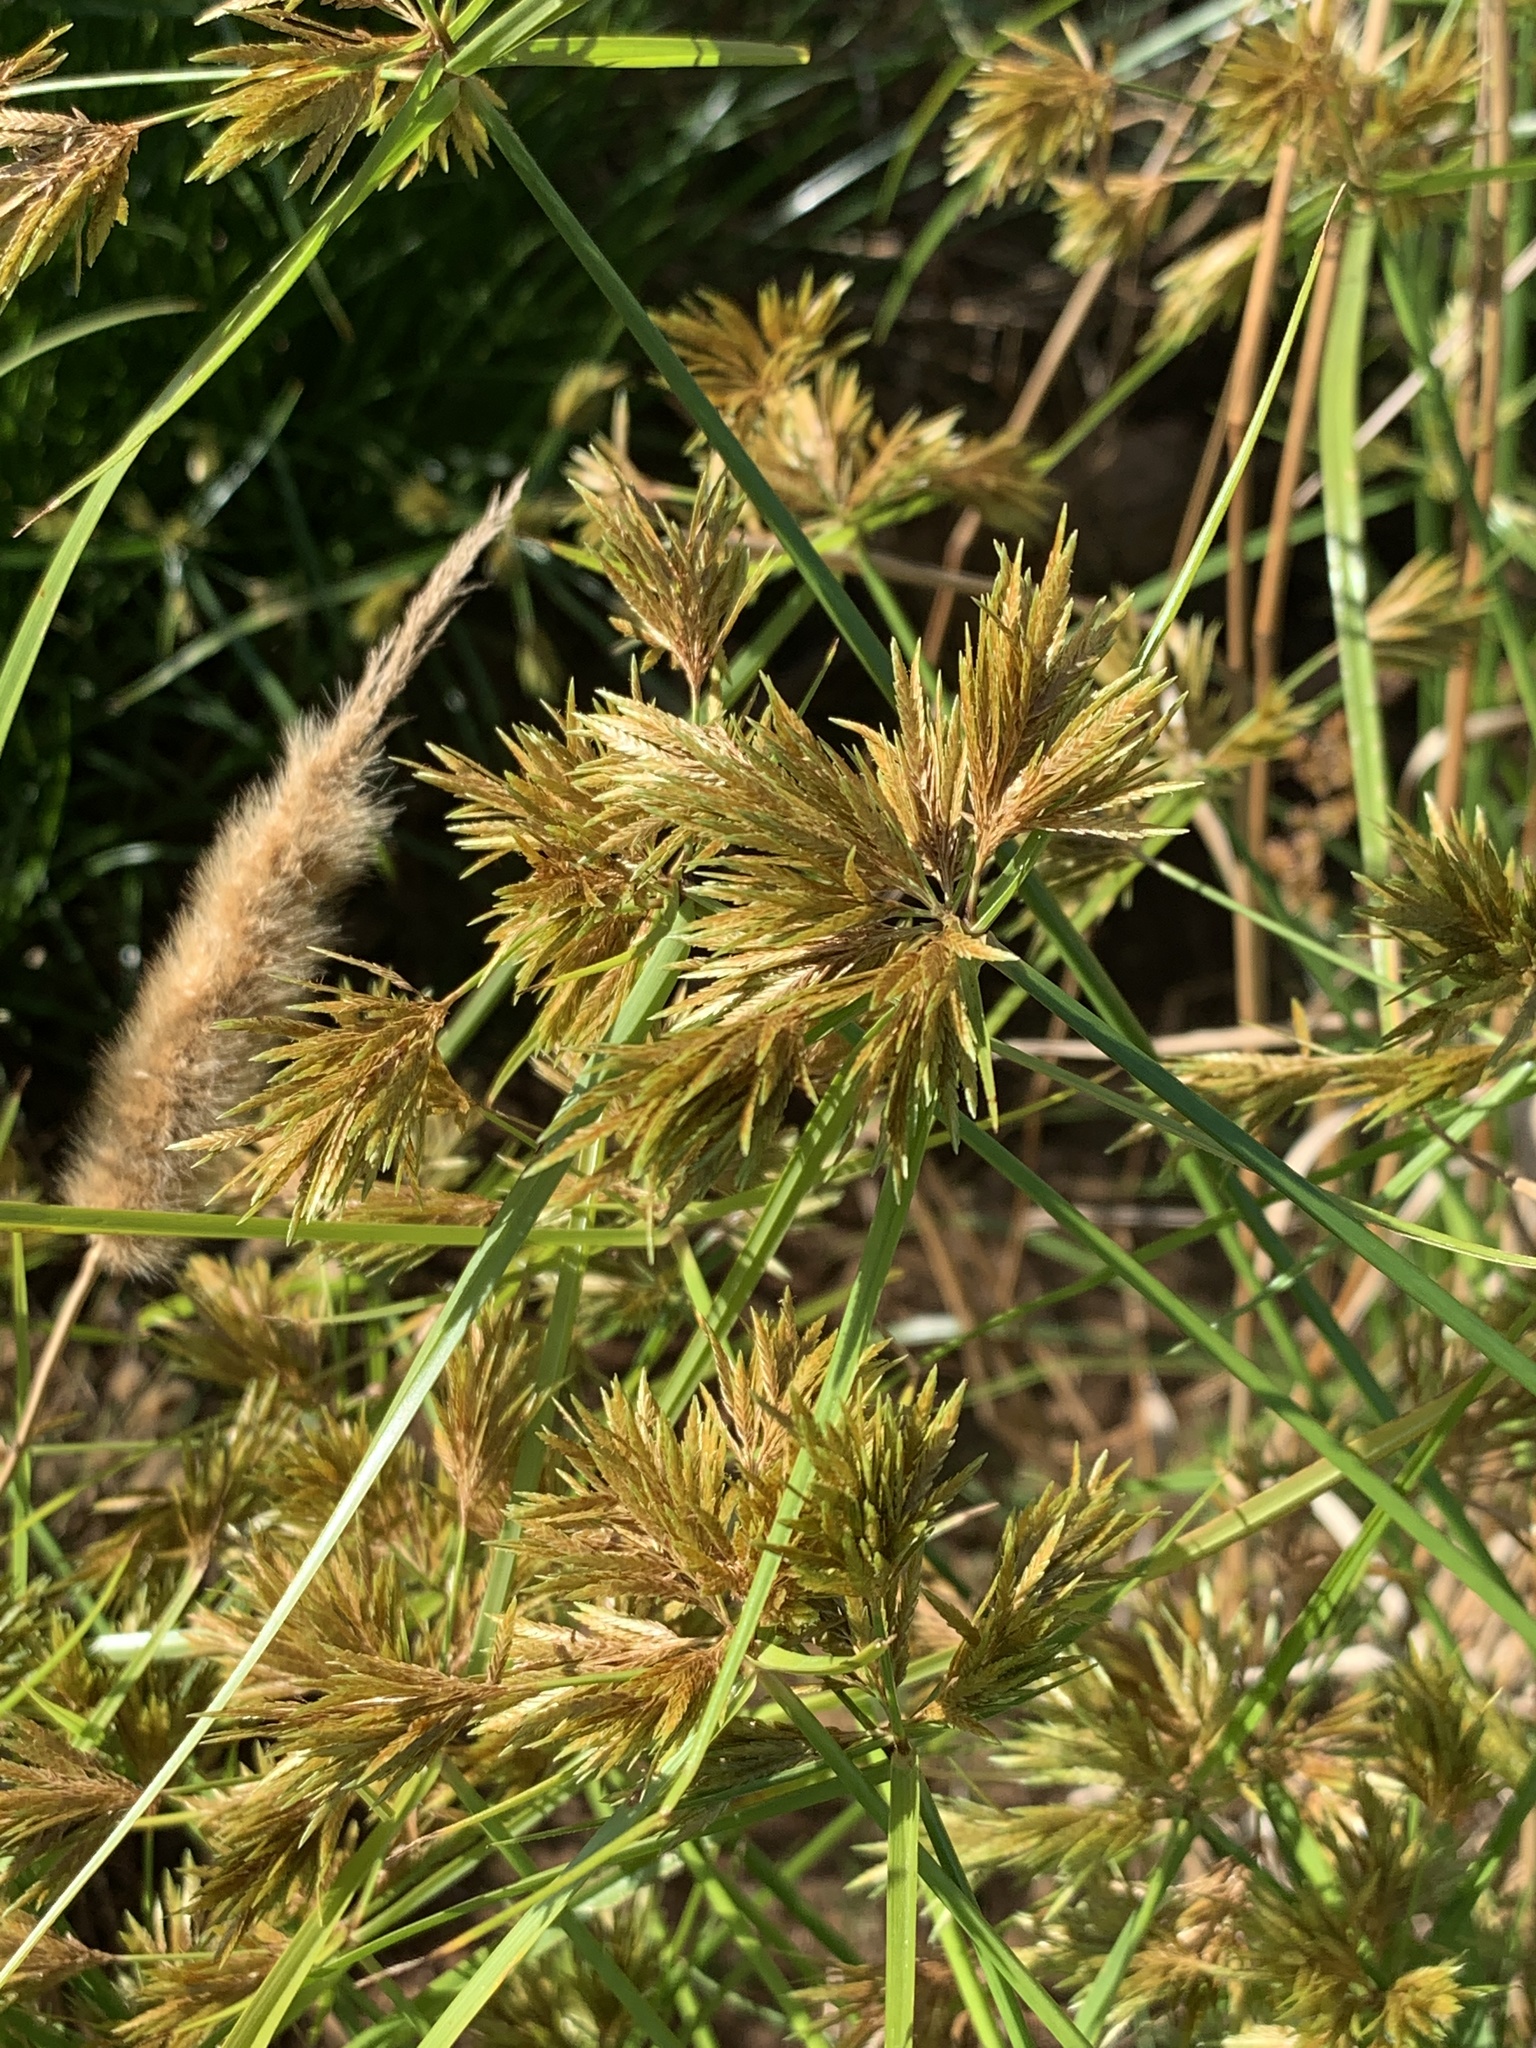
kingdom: Plantae
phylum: Tracheophyta
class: Liliopsida
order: Poales
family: Cyperaceae
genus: Cyperus
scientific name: Cyperus polystachyos
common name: Bunchy flat sedge
